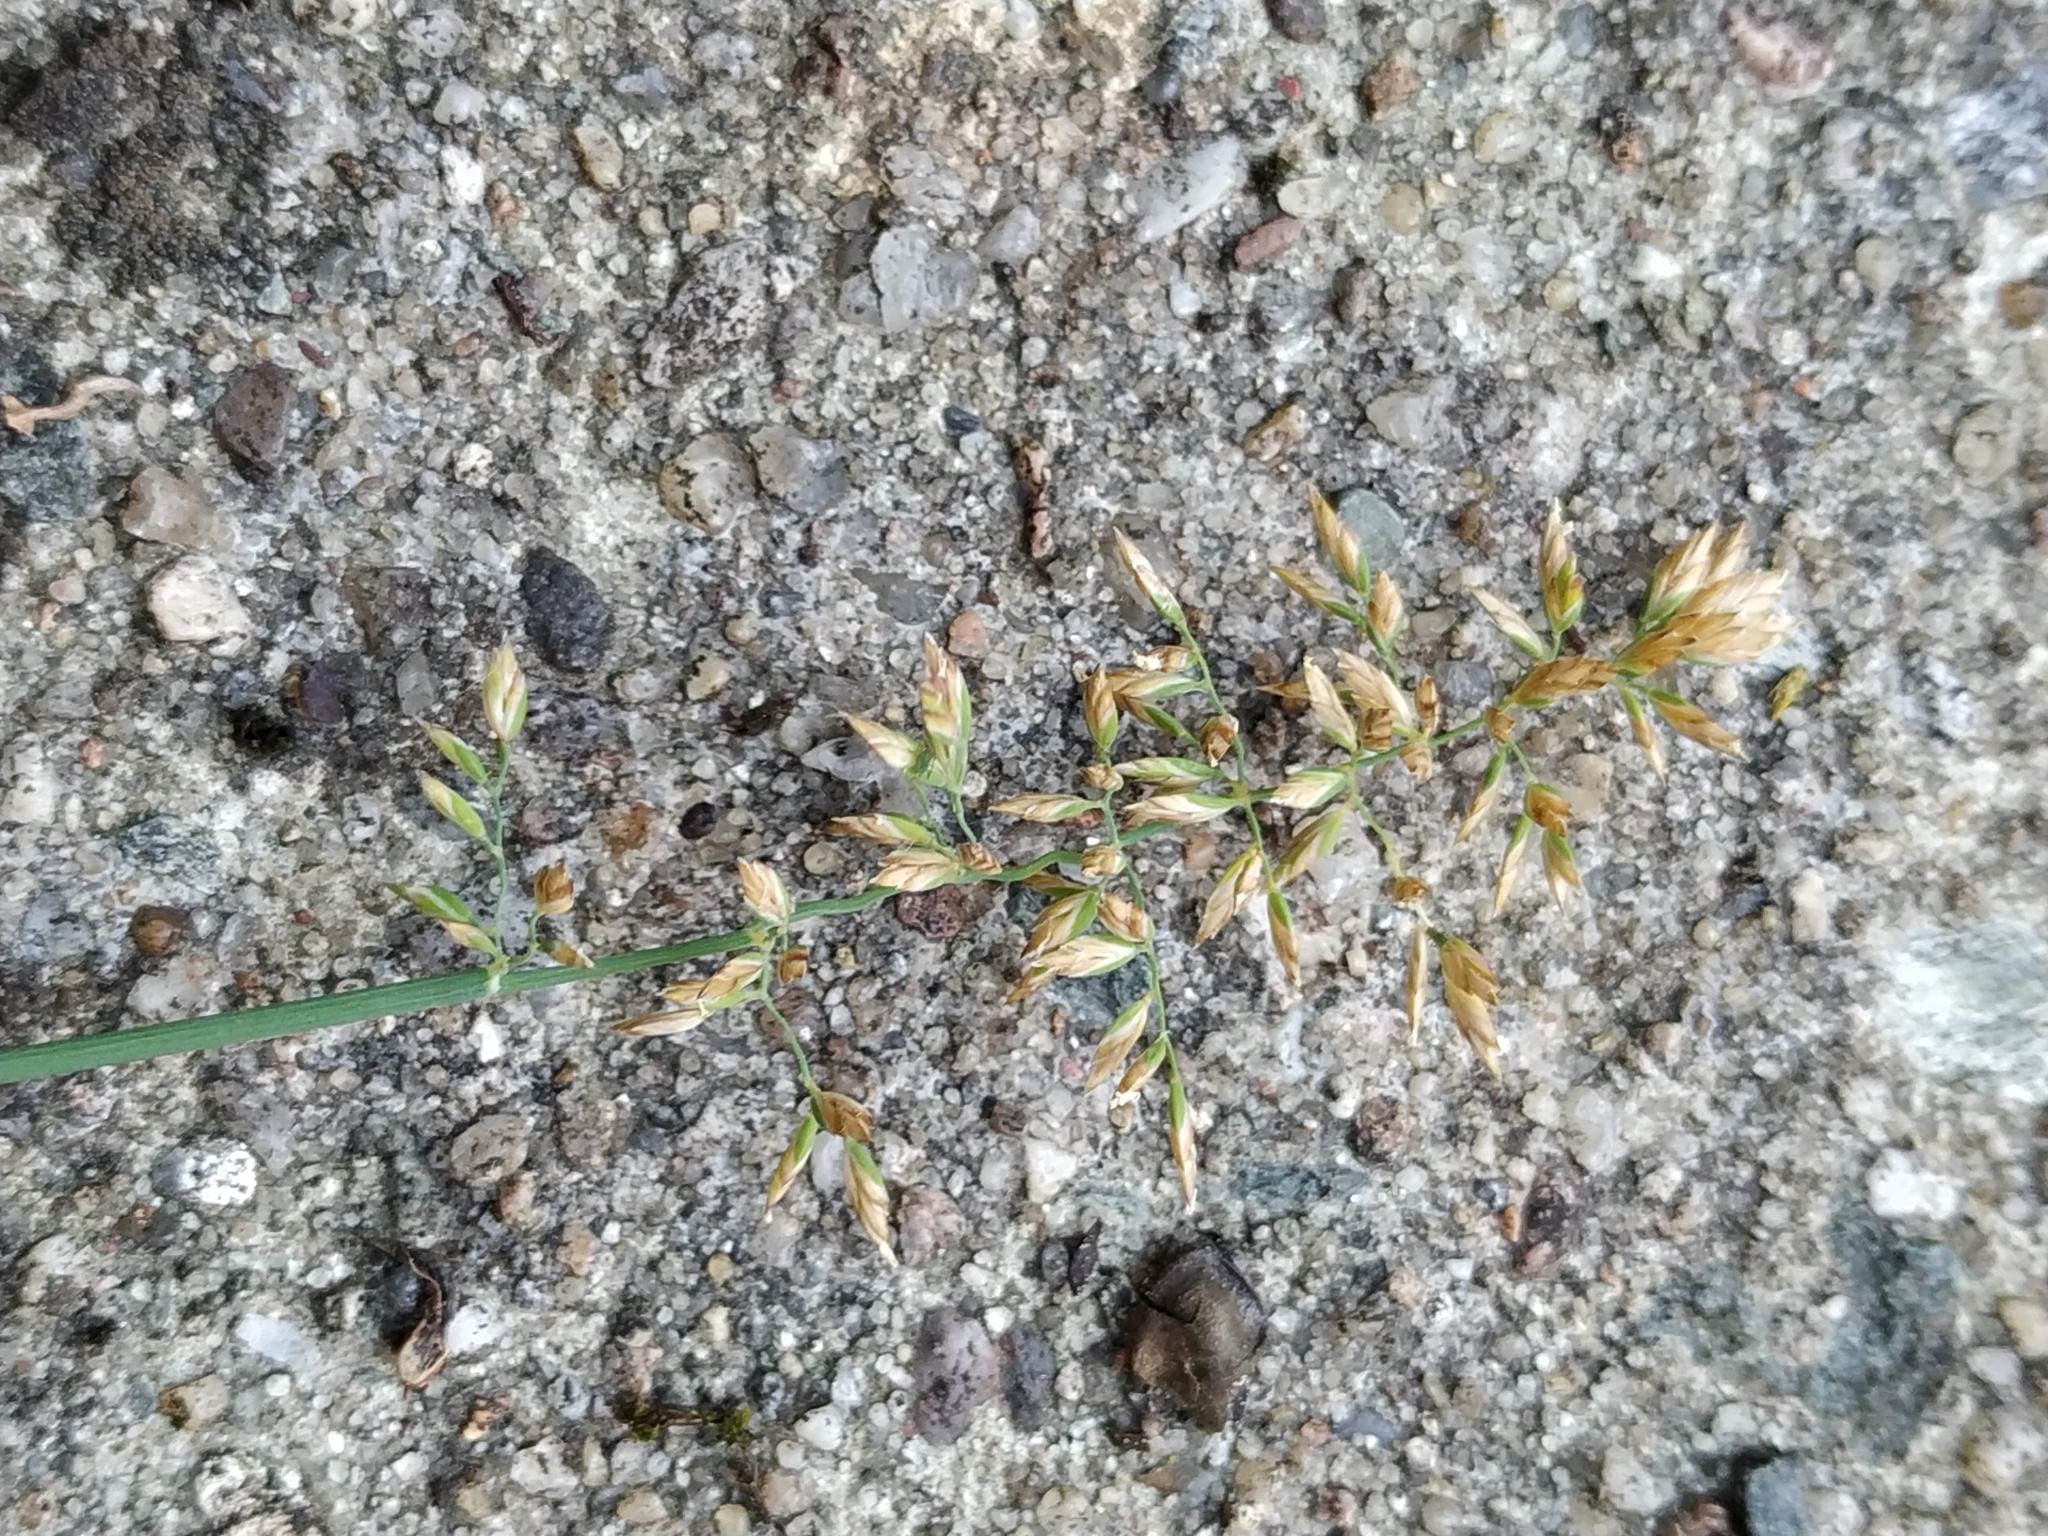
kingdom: Plantae
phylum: Tracheophyta
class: Liliopsida
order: Poales
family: Poaceae
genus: Poa
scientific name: Poa compressa
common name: Canada bluegrass
